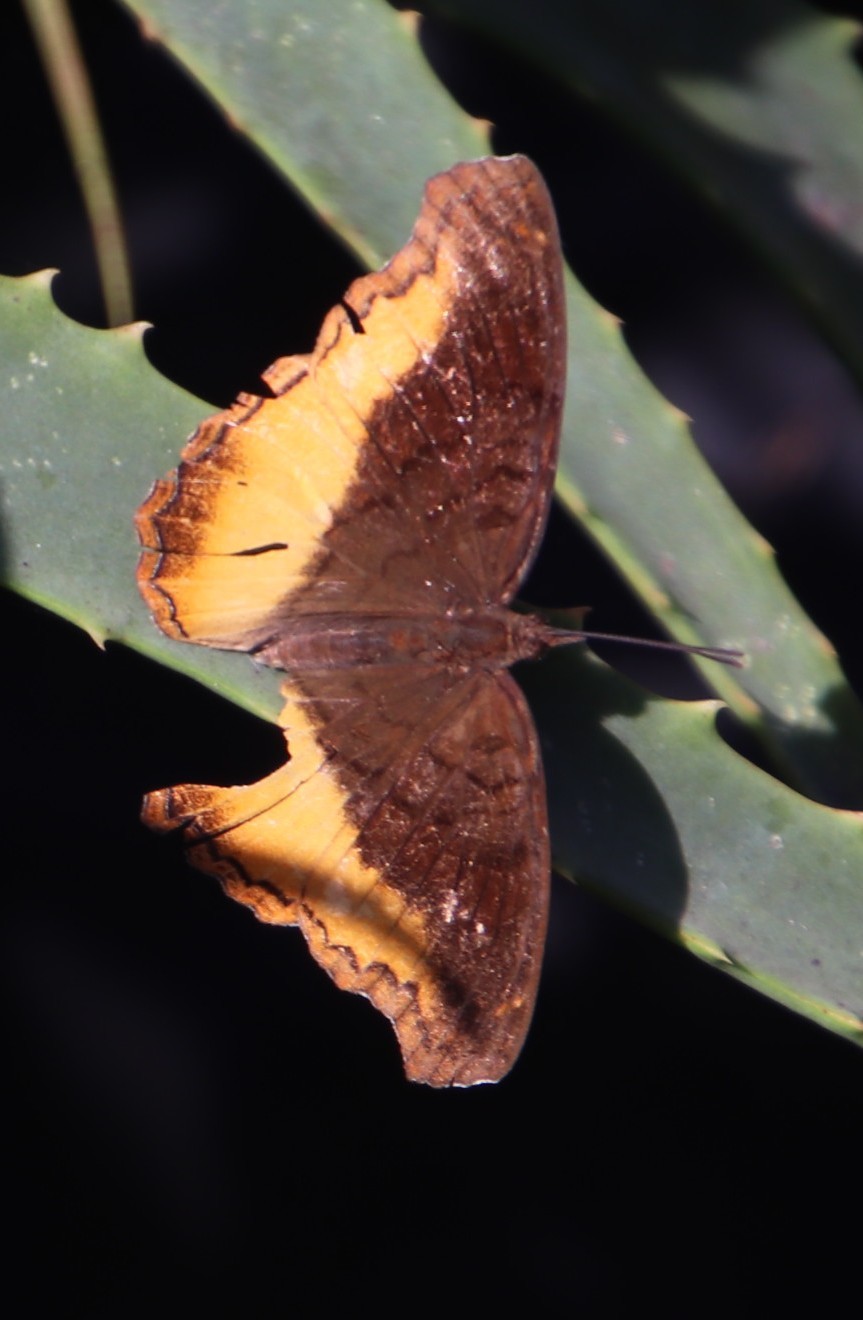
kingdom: Animalia
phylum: Arthropoda
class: Insecta
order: Lepidoptera
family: Nymphalidae
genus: Eurytela
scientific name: Eurytela dryope
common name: Golden piper
